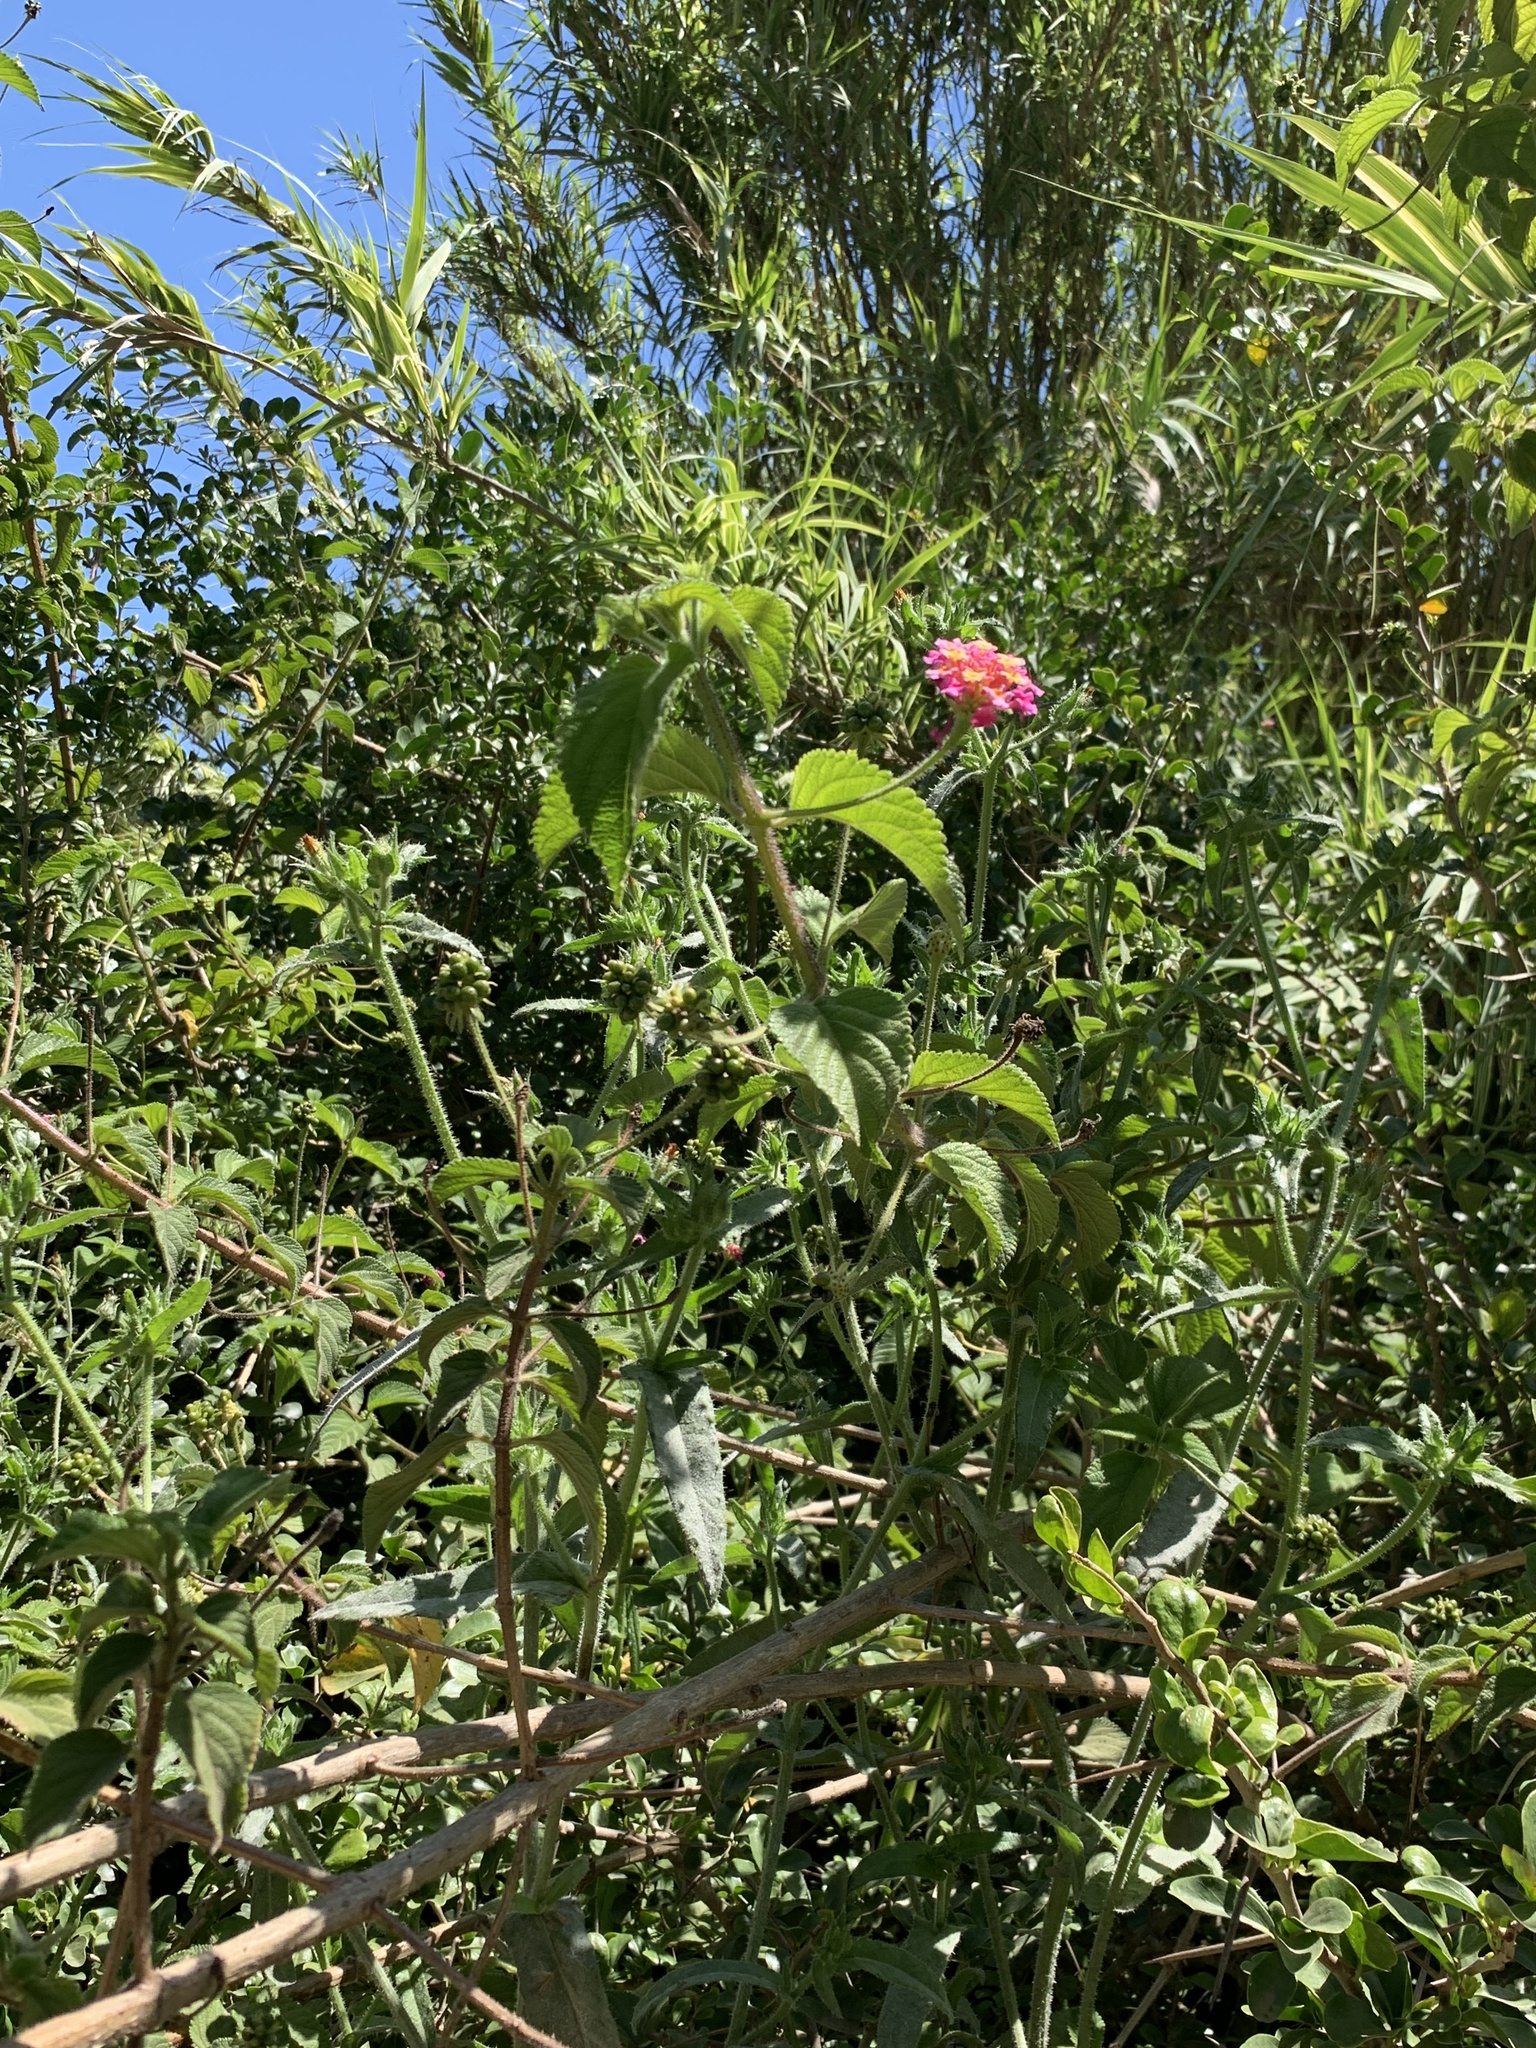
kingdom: Plantae
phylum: Tracheophyta
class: Magnoliopsida
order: Lamiales
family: Verbenaceae
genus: Lantana
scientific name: Lantana camara
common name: Lantana
